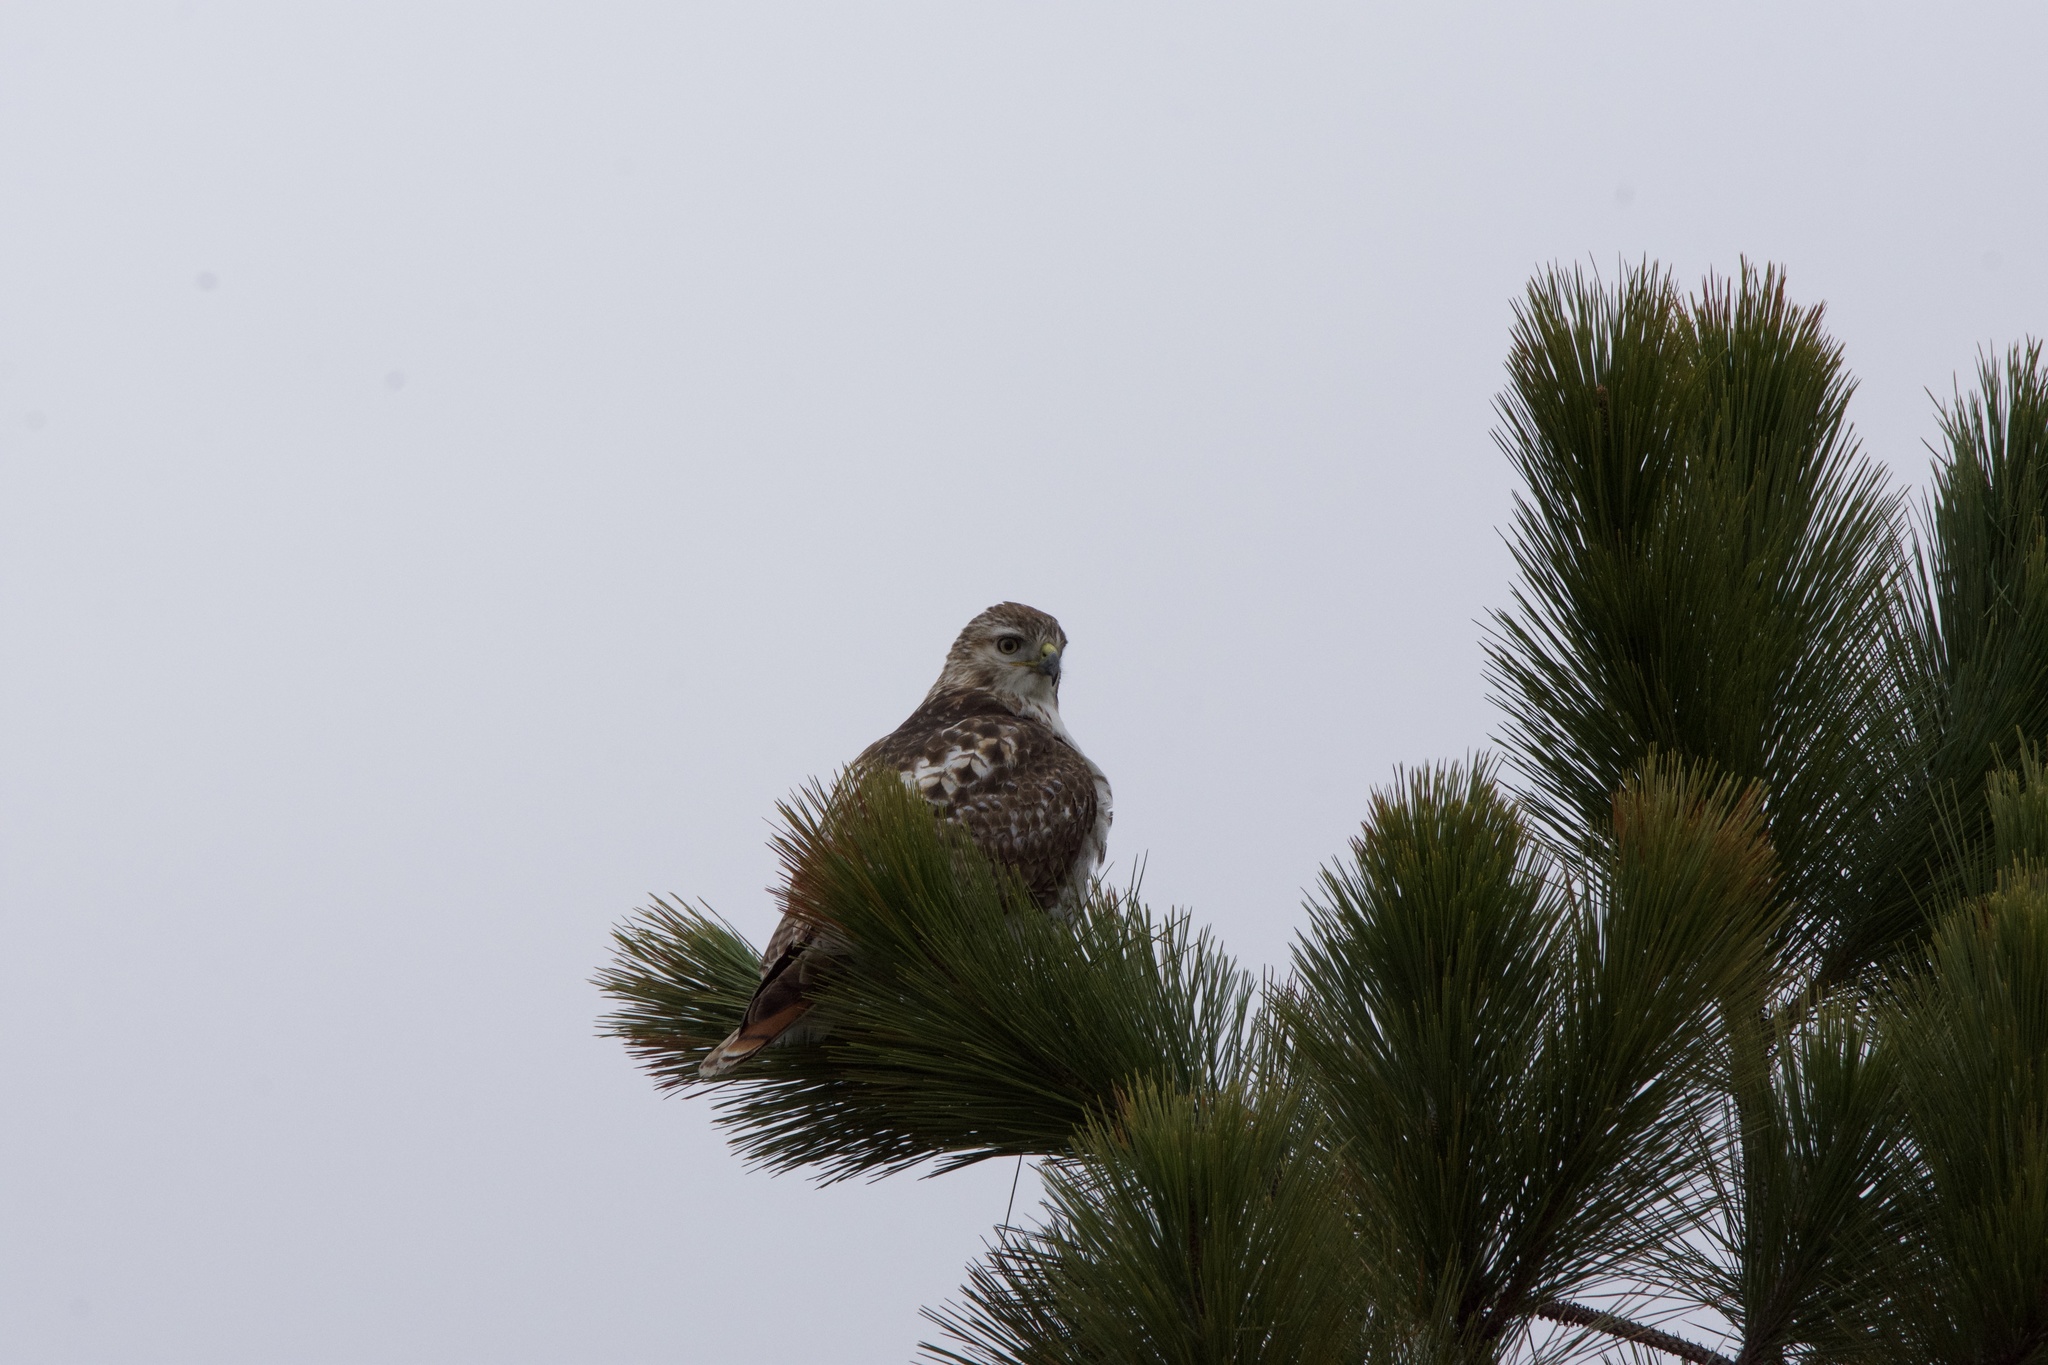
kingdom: Animalia
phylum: Chordata
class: Aves
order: Accipitriformes
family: Accipitridae
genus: Buteo
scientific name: Buteo jamaicensis
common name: Red-tailed hawk
